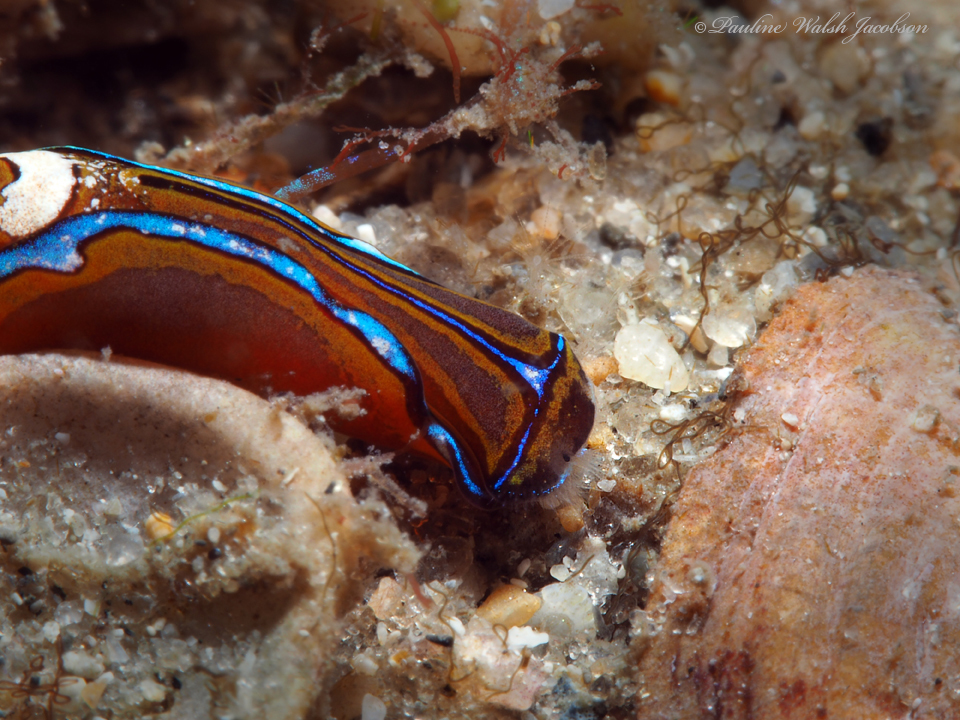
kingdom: Animalia
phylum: Mollusca
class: Gastropoda
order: Cephalaspidea
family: Aglajidae
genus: Chelidonura
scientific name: Chelidonura hirundinina
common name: Leech headshield slug
